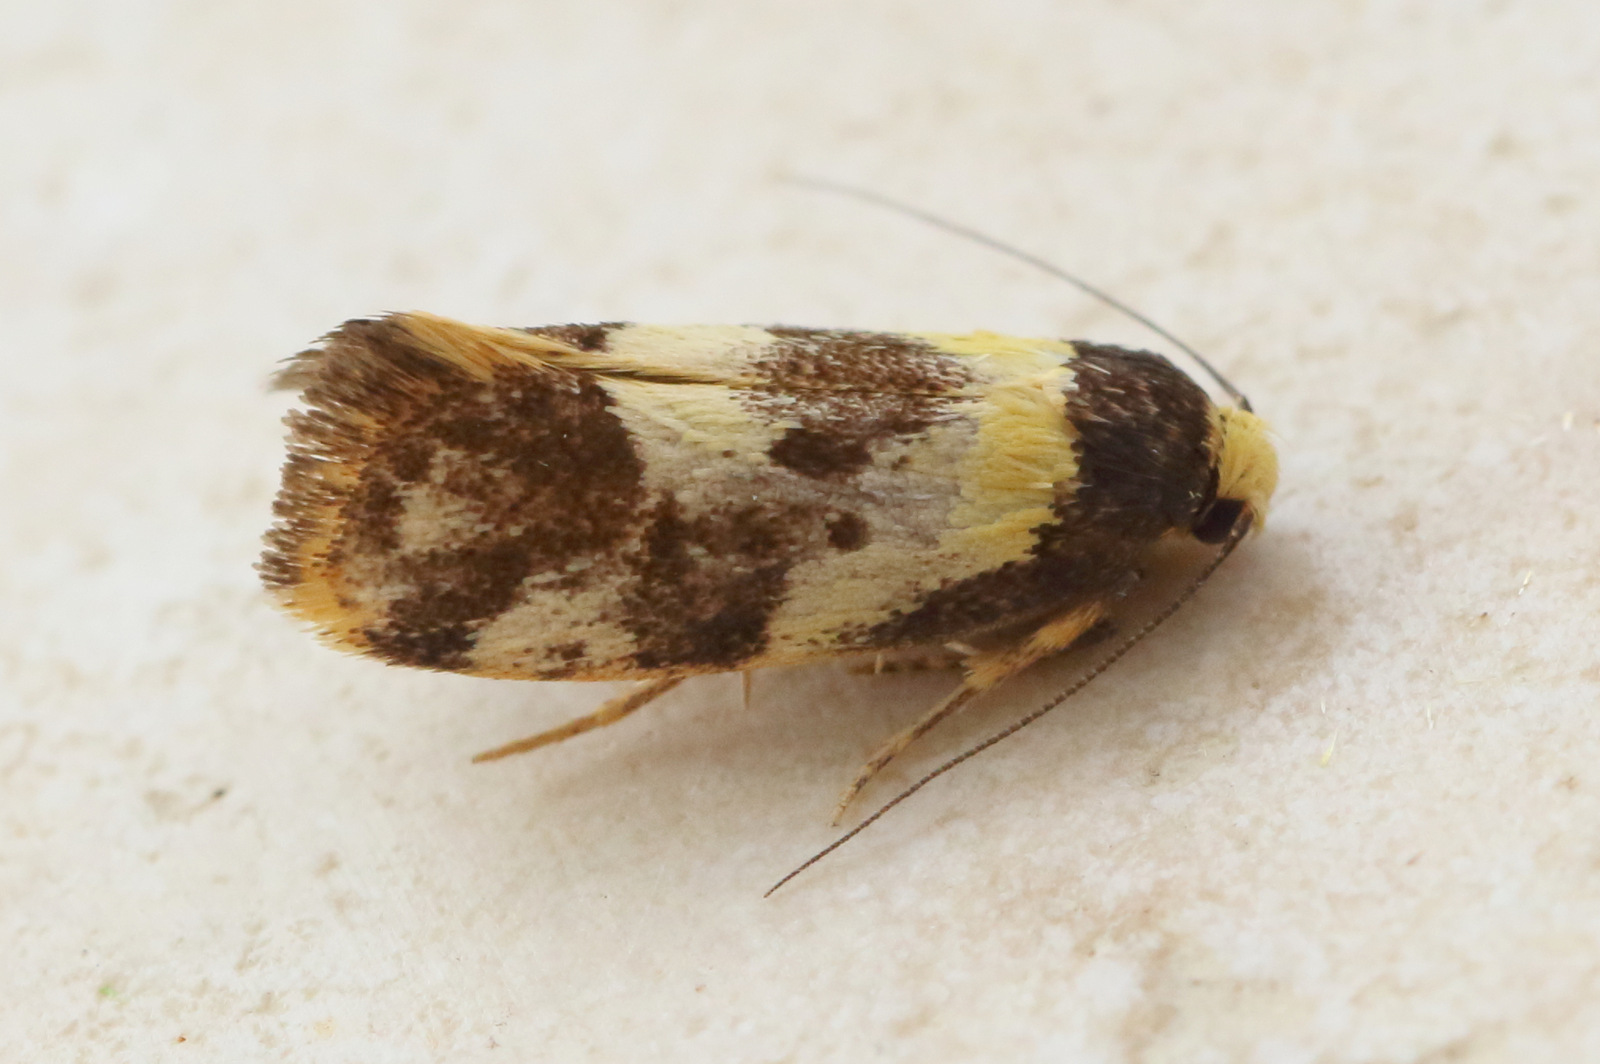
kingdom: Animalia
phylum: Arthropoda
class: Insecta
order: Lepidoptera
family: Oecophoridae
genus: Eulechria
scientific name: Eulechria marmorata
